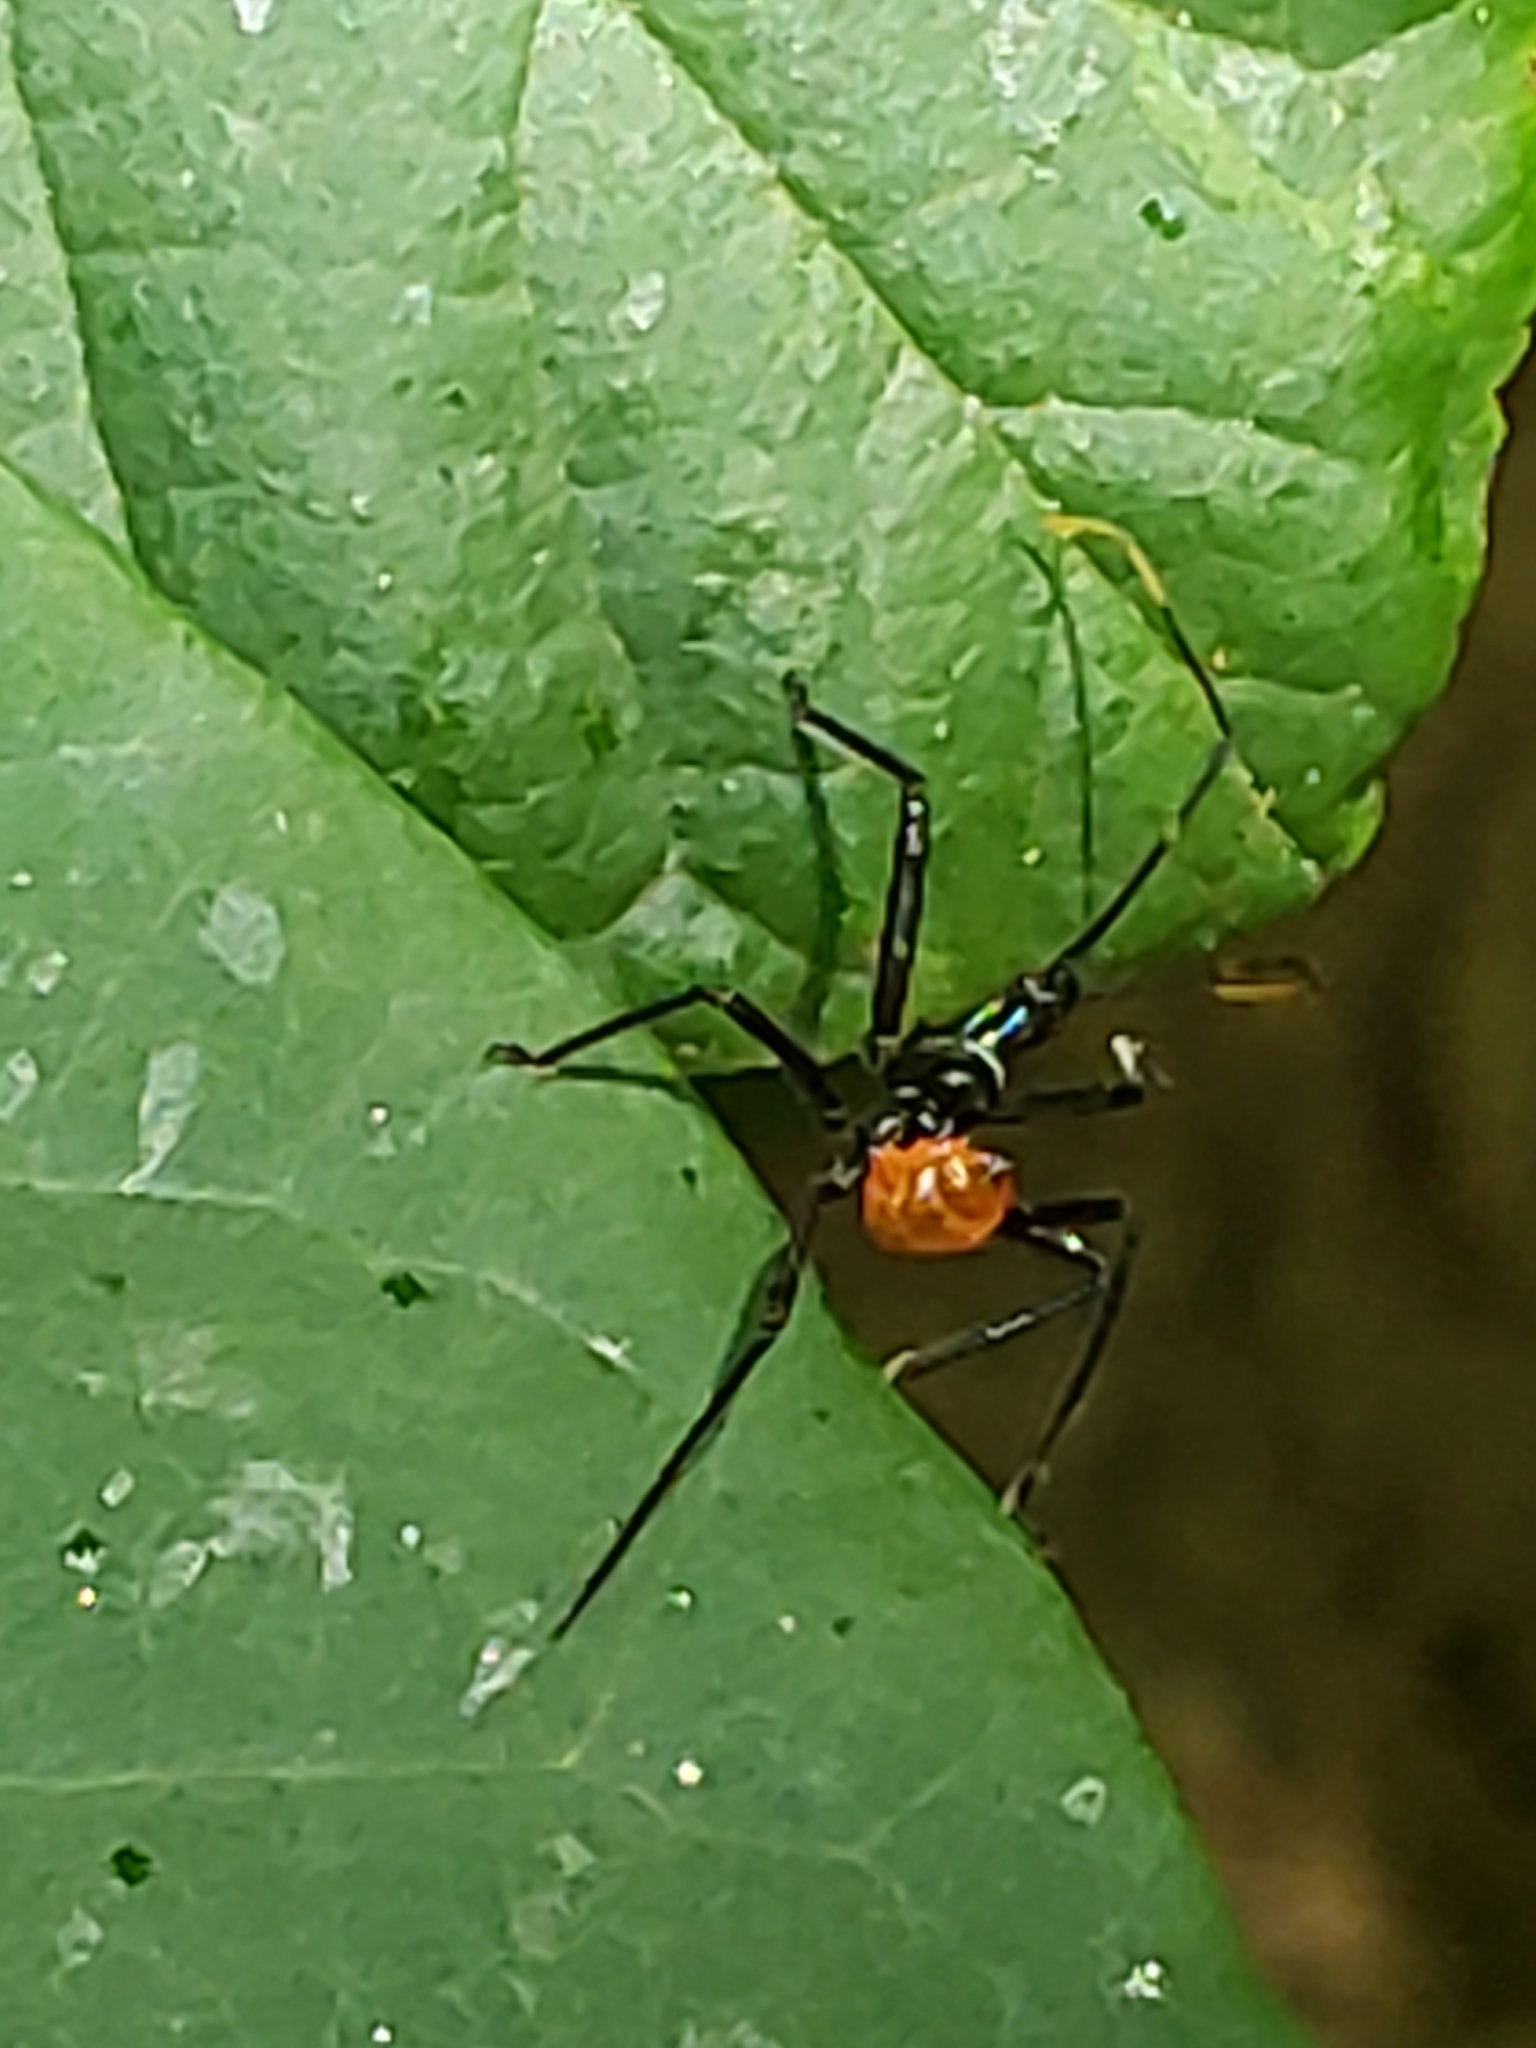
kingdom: Animalia
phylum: Arthropoda
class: Insecta
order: Hemiptera
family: Reduviidae
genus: Arilus
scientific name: Arilus cristatus
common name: North american wheel bug
